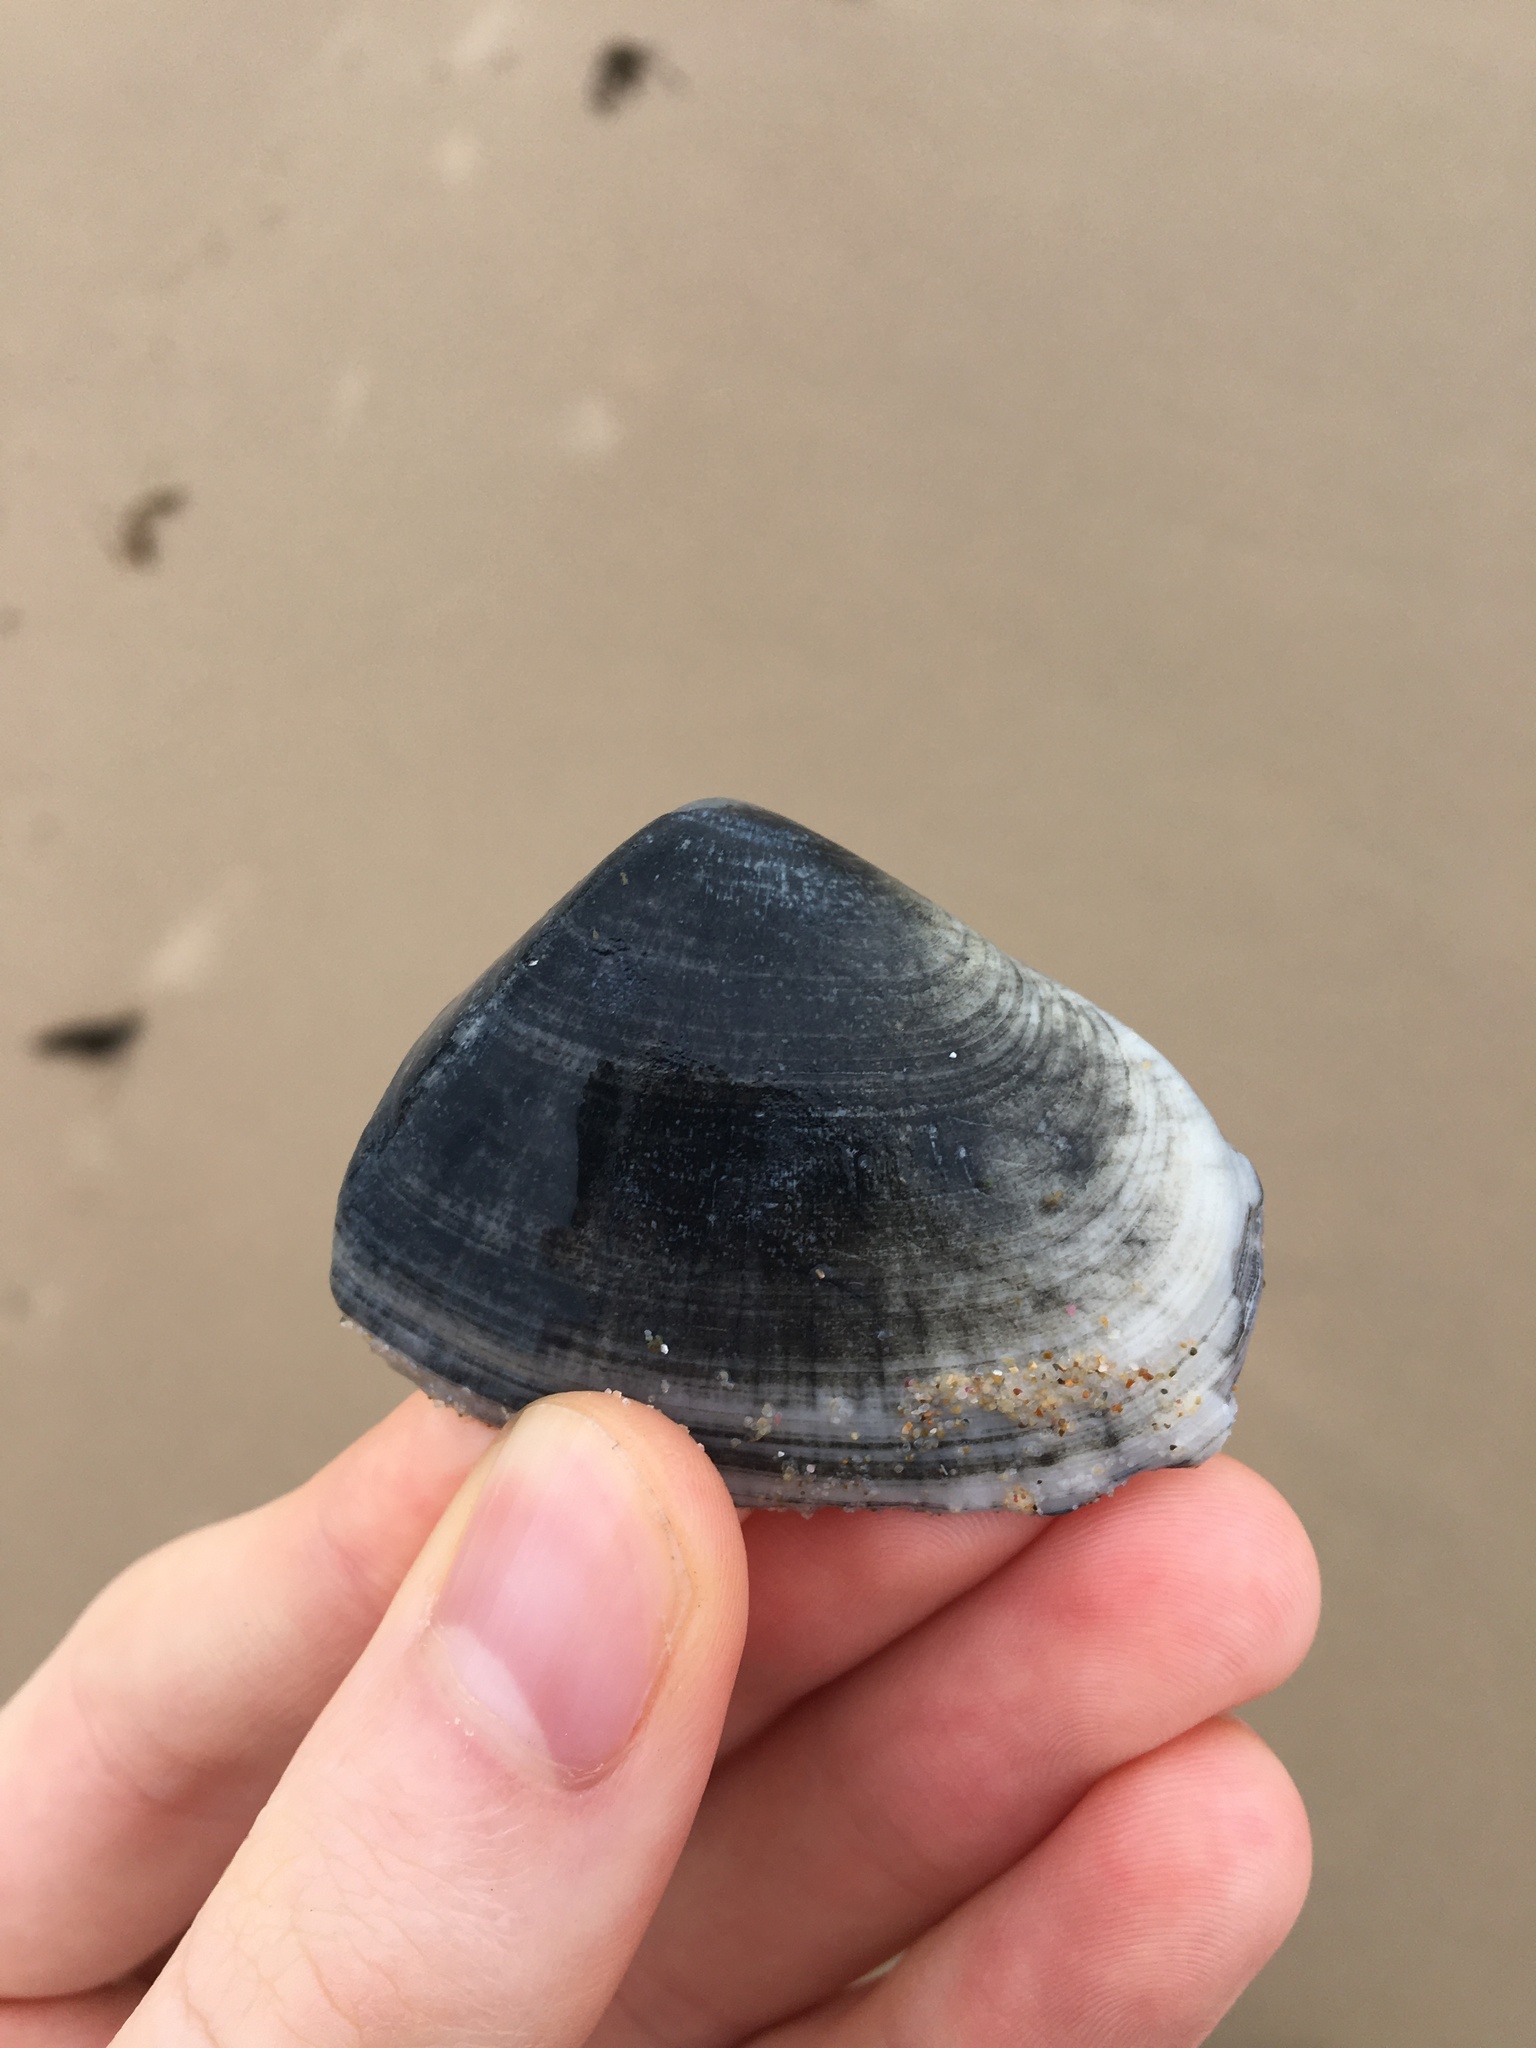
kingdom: Animalia
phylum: Mollusca
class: Bivalvia
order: Cardiida
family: Donacidae
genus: Latona
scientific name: Latona deltoides
